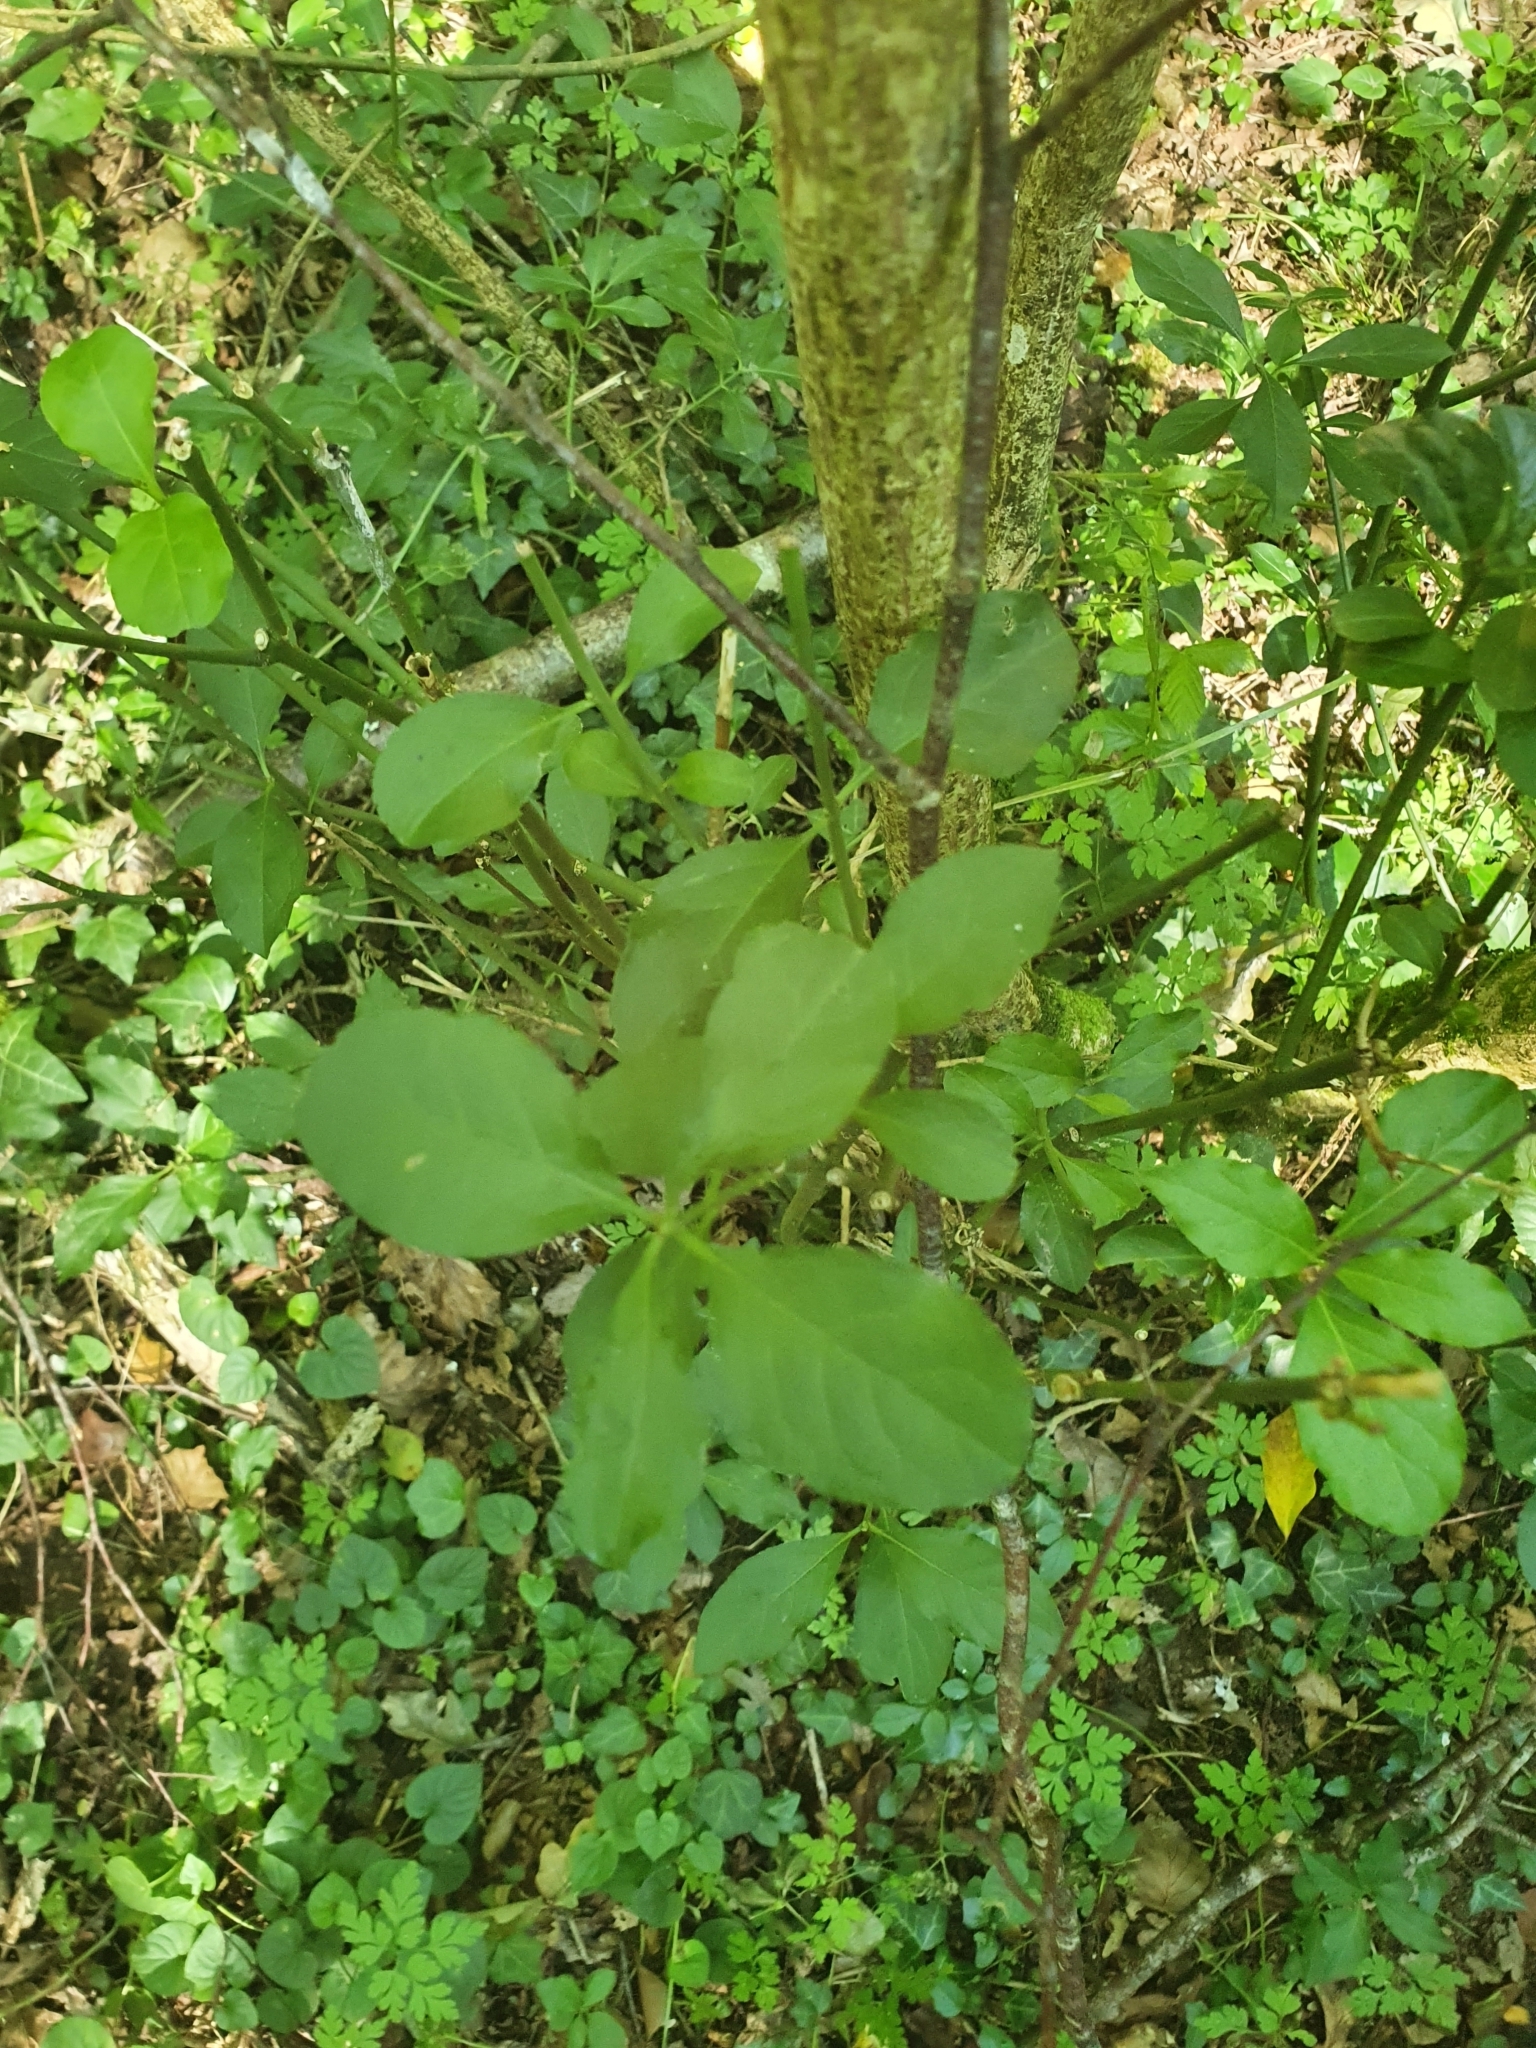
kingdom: Plantae
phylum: Tracheophyta
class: Magnoliopsida
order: Celastrales
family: Celastraceae
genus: Euonymus
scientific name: Euonymus europaeus
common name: Spindle
